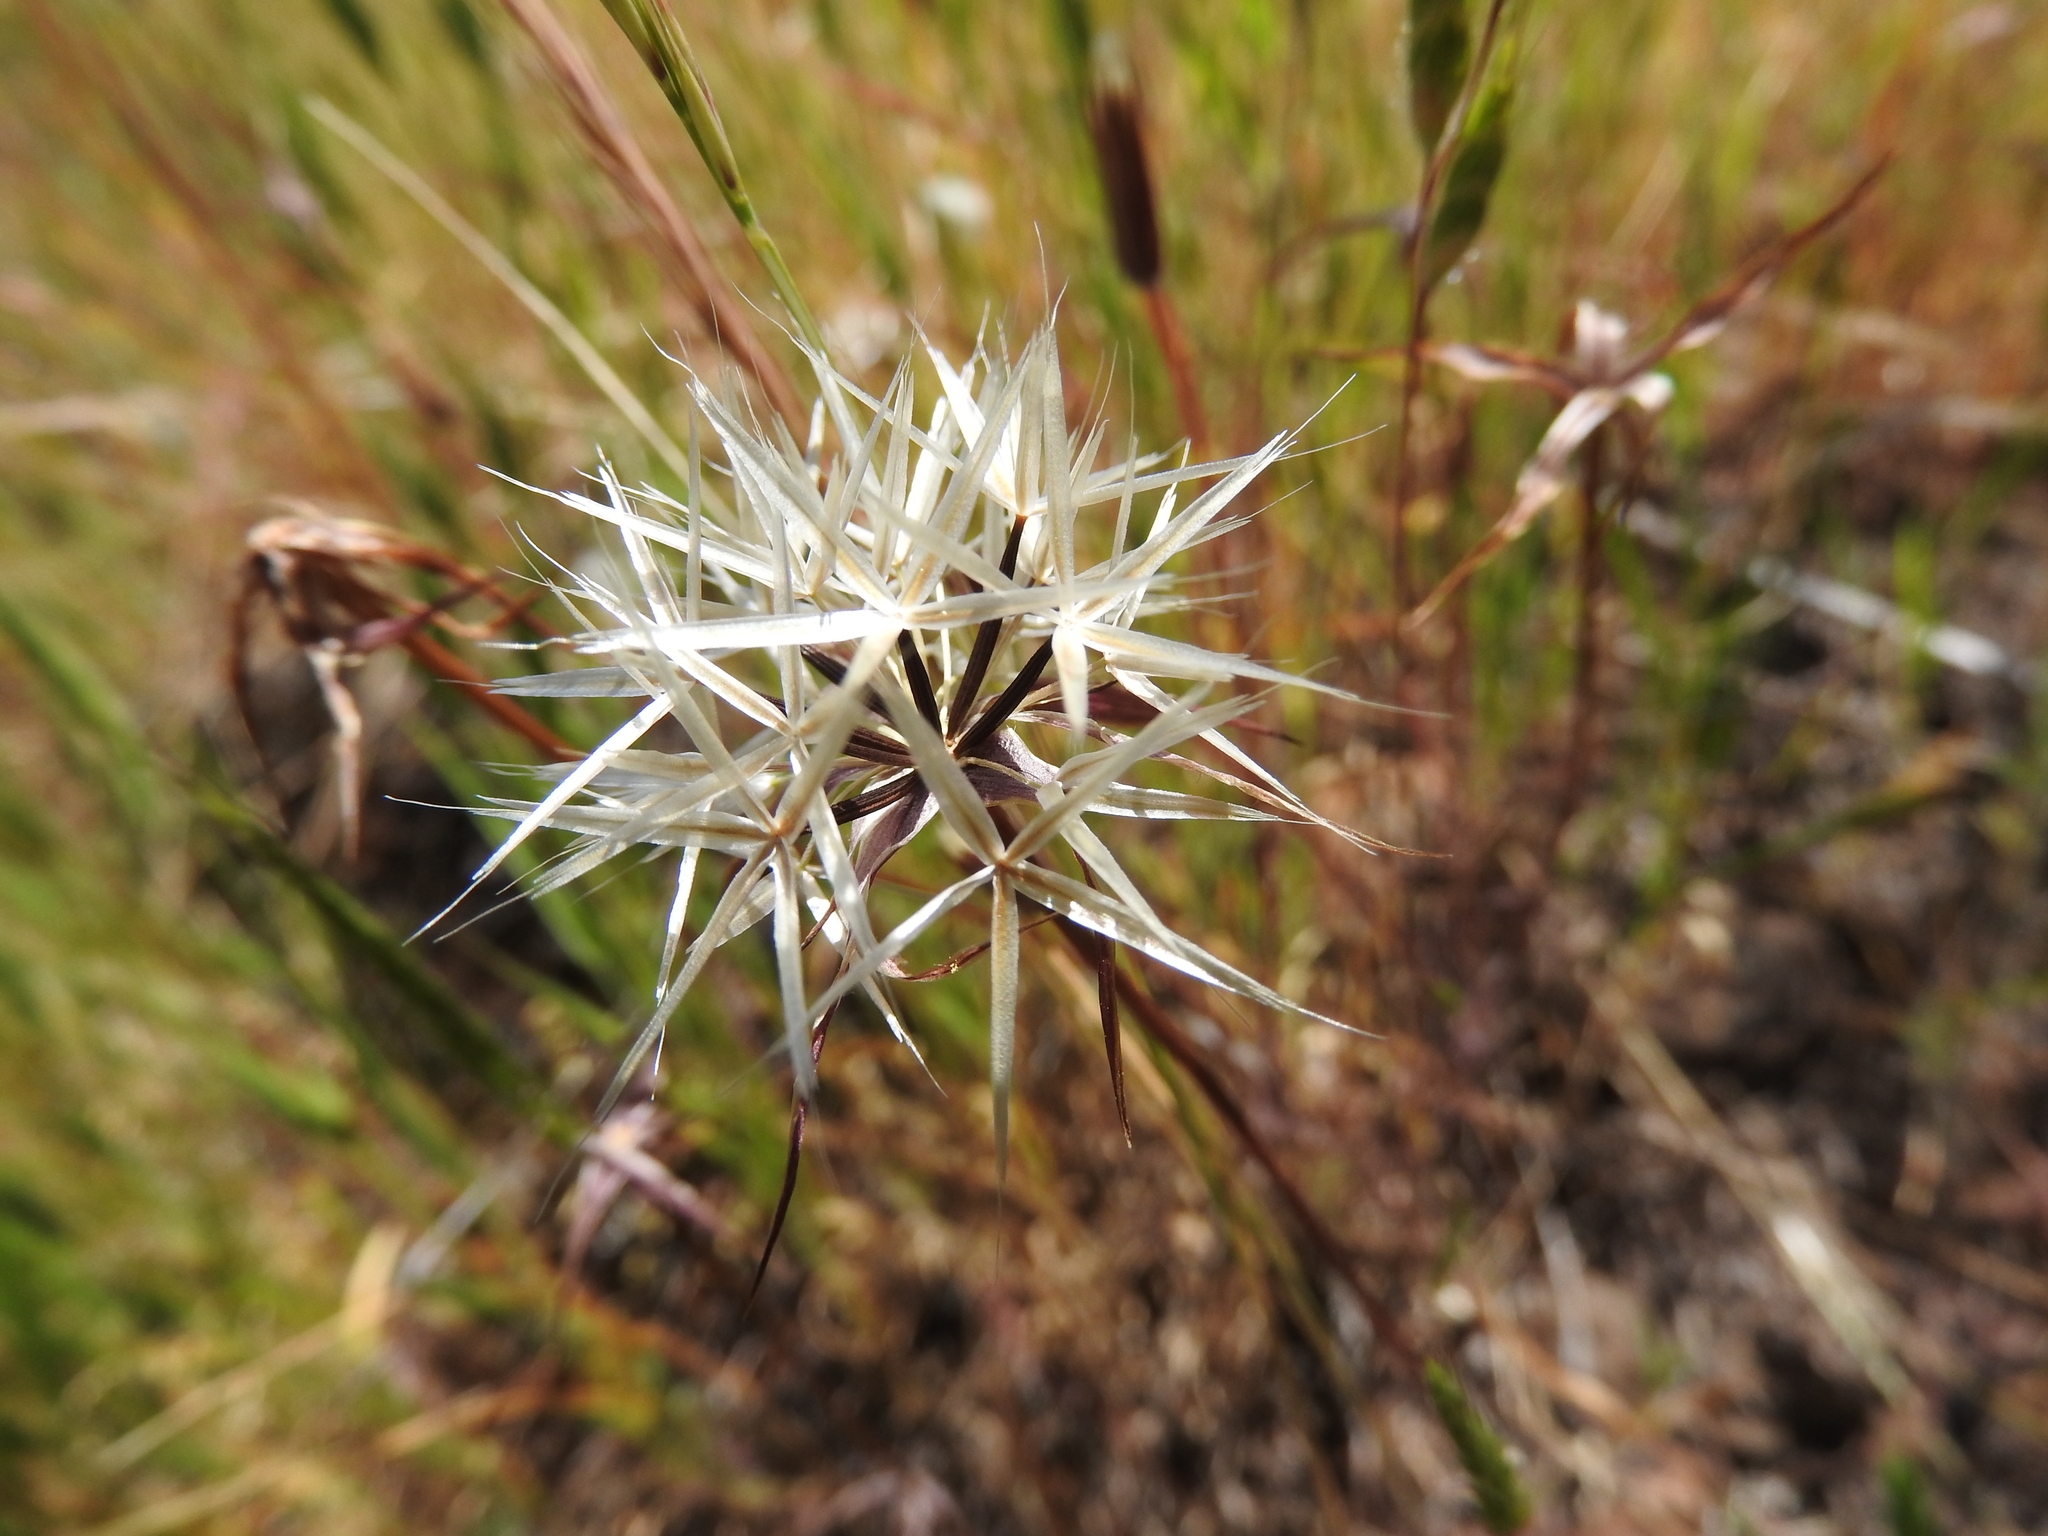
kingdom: Plantae
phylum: Tracheophyta
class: Magnoliopsida
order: Asterales
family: Asteraceae
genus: Microseris
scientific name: Microseris lindleyi
